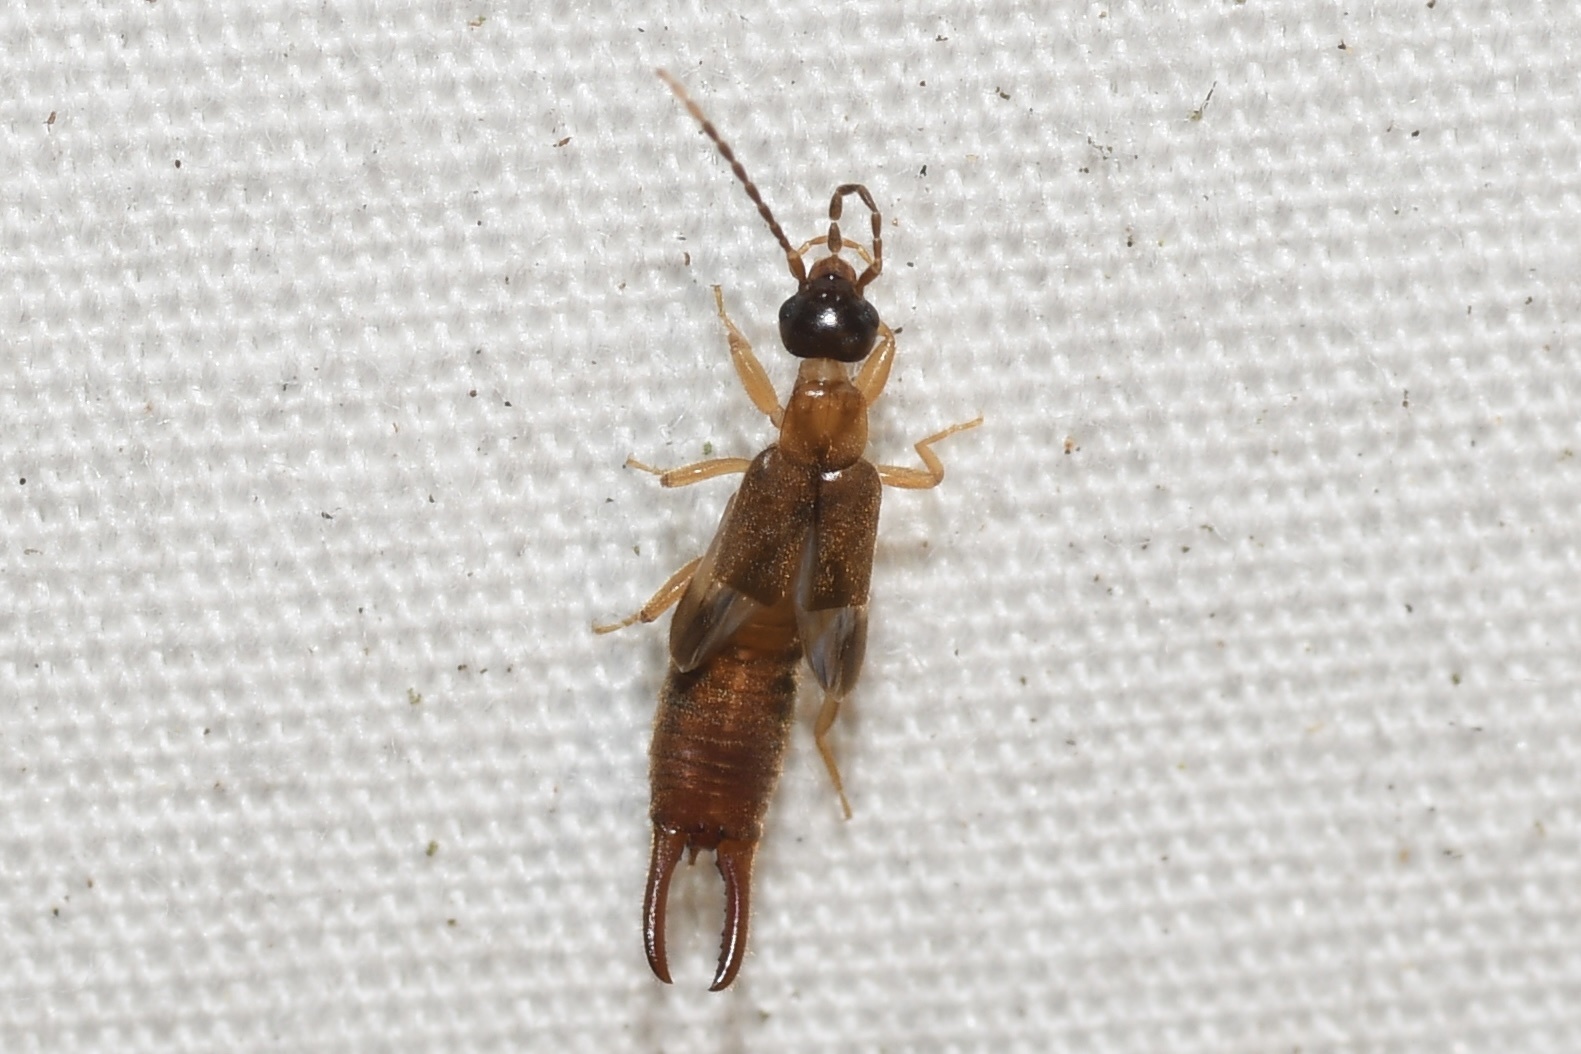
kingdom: Animalia
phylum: Arthropoda
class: Insecta
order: Dermaptera
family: Spongiphoridae
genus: Labia
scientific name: Labia minor
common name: Lesser earwig
